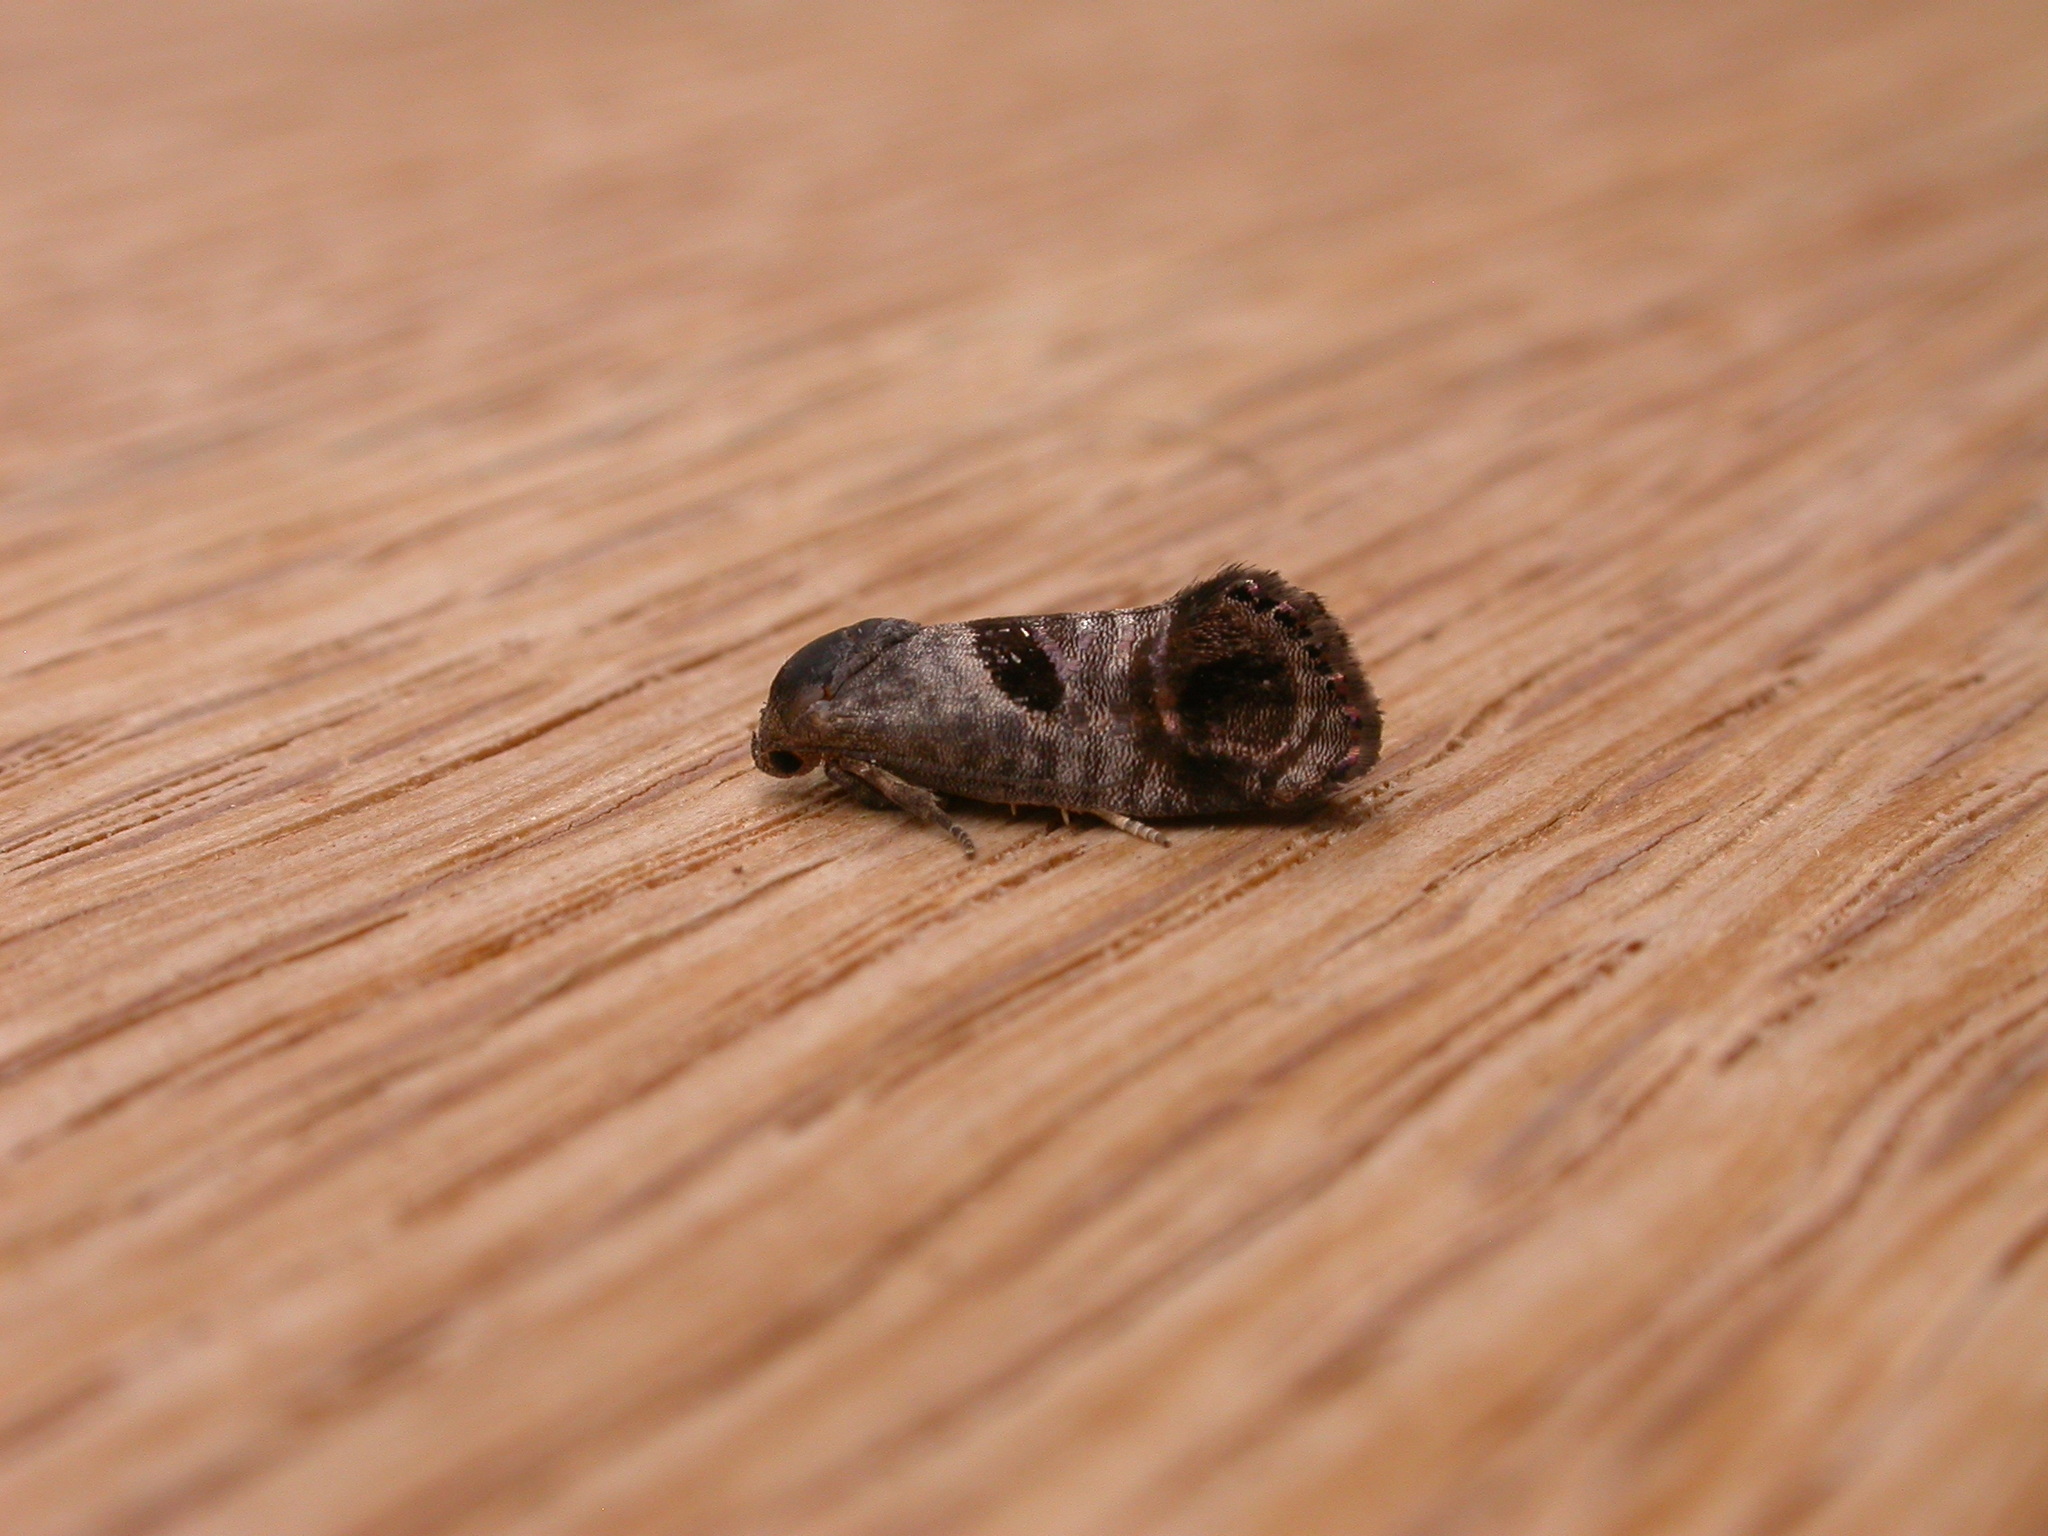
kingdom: Animalia
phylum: Arthropoda
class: Insecta
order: Lepidoptera
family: Depressariidae
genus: Eupselia
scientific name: Eupselia beatella
